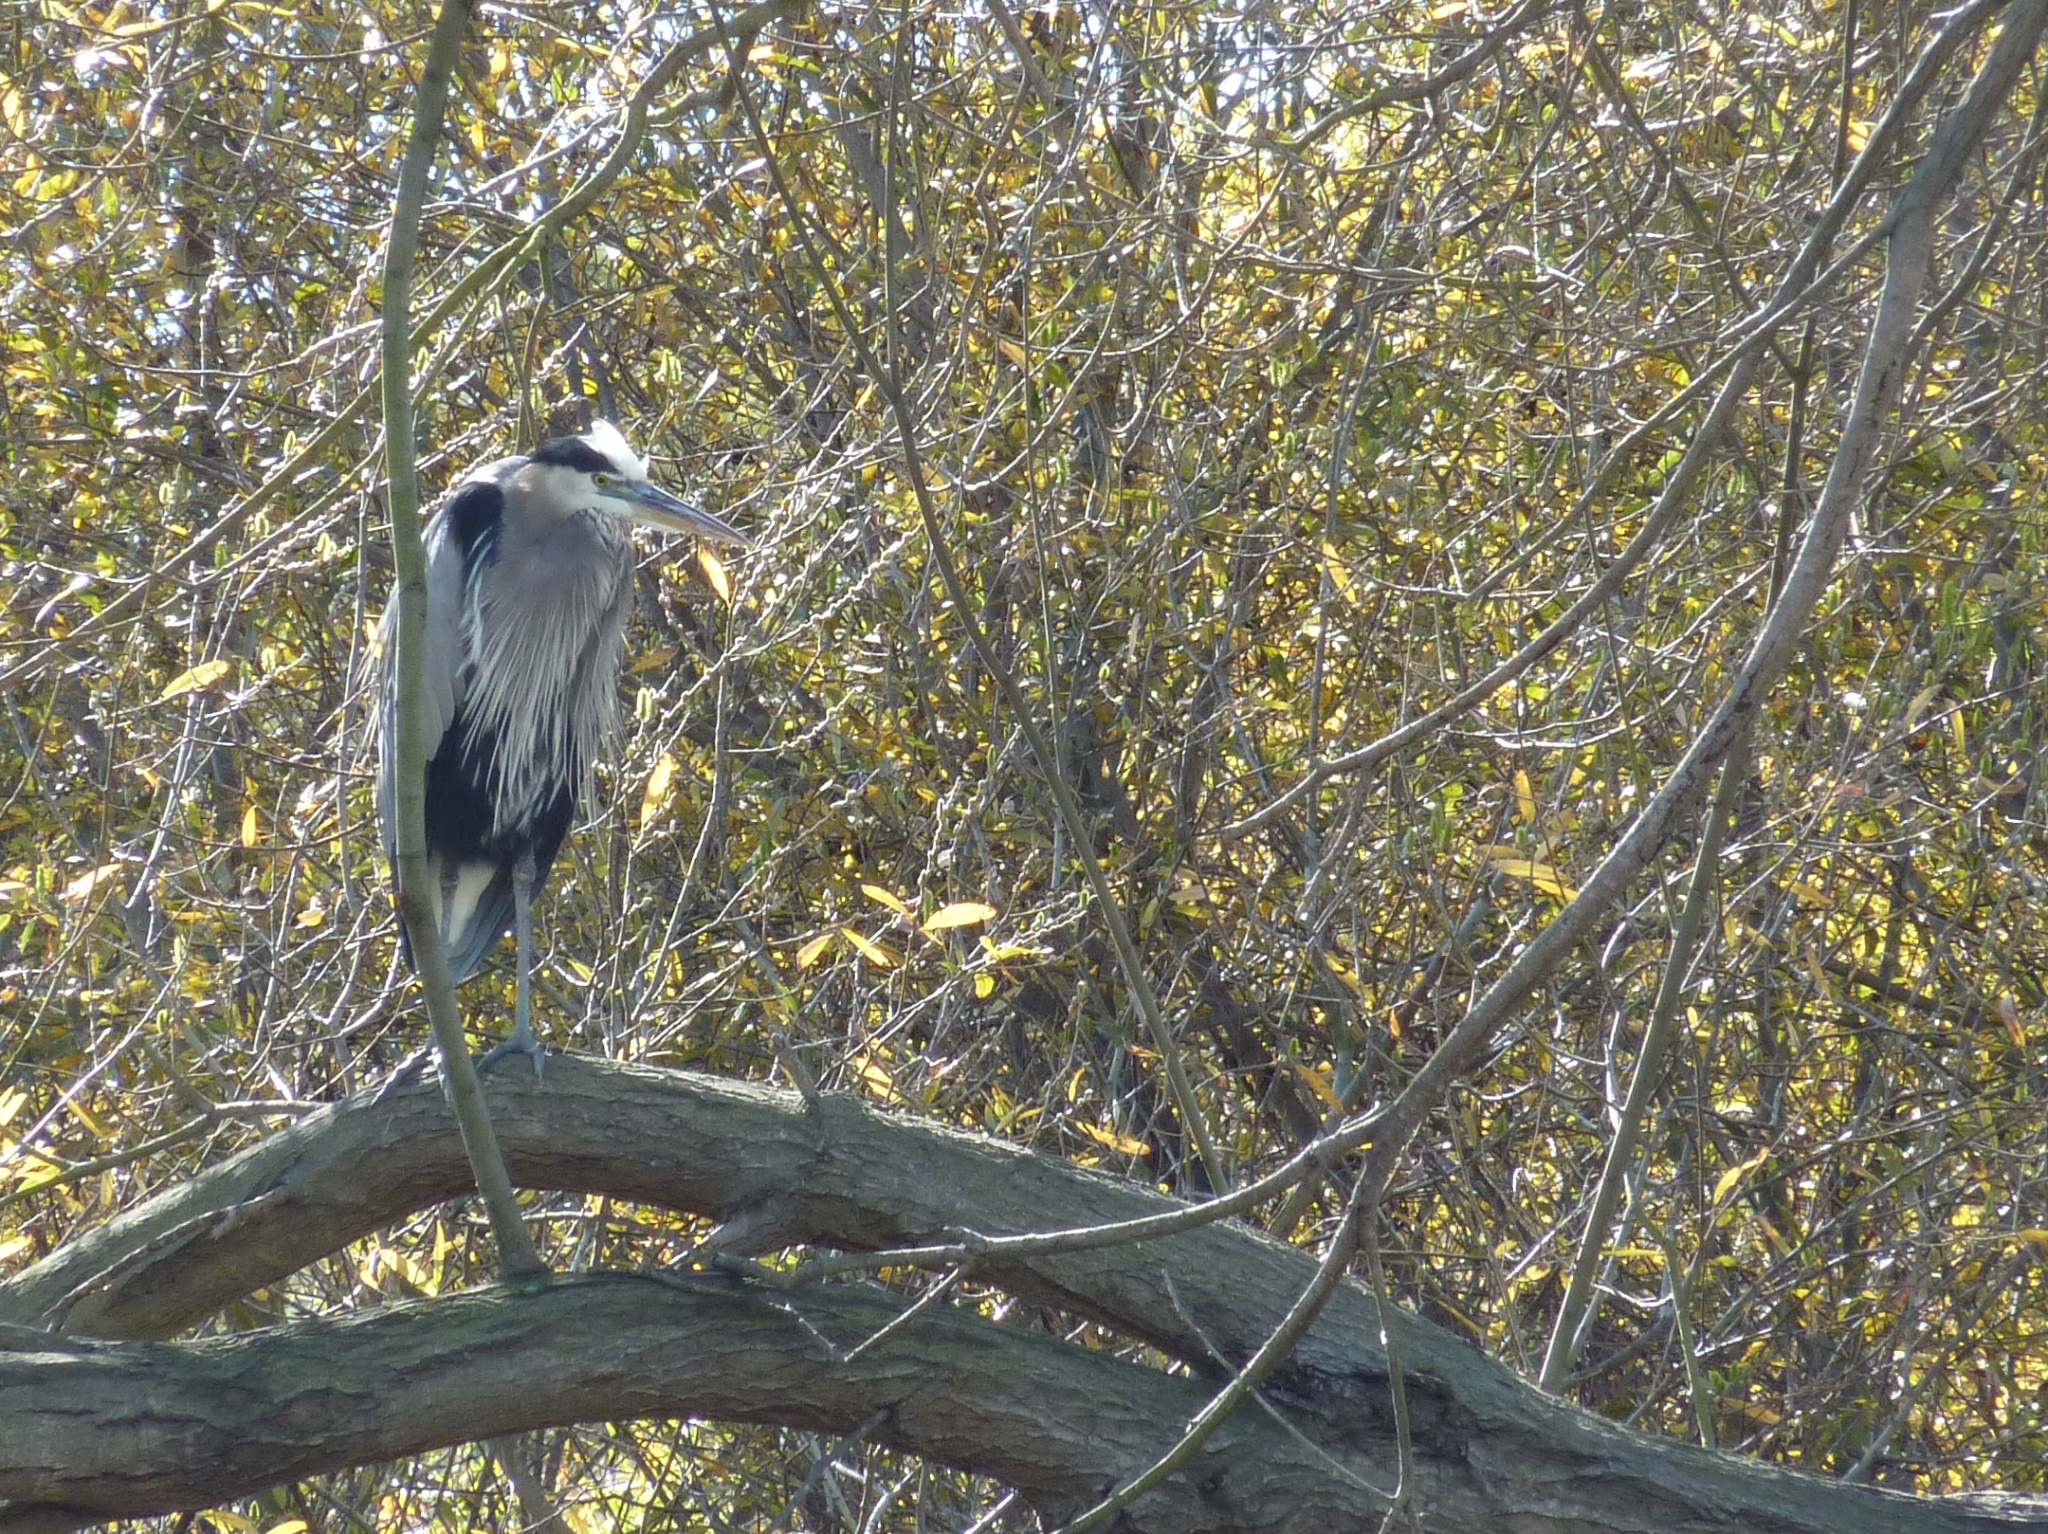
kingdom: Animalia
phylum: Chordata
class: Aves
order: Pelecaniformes
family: Ardeidae
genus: Ardea
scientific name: Ardea herodias
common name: Great blue heron
